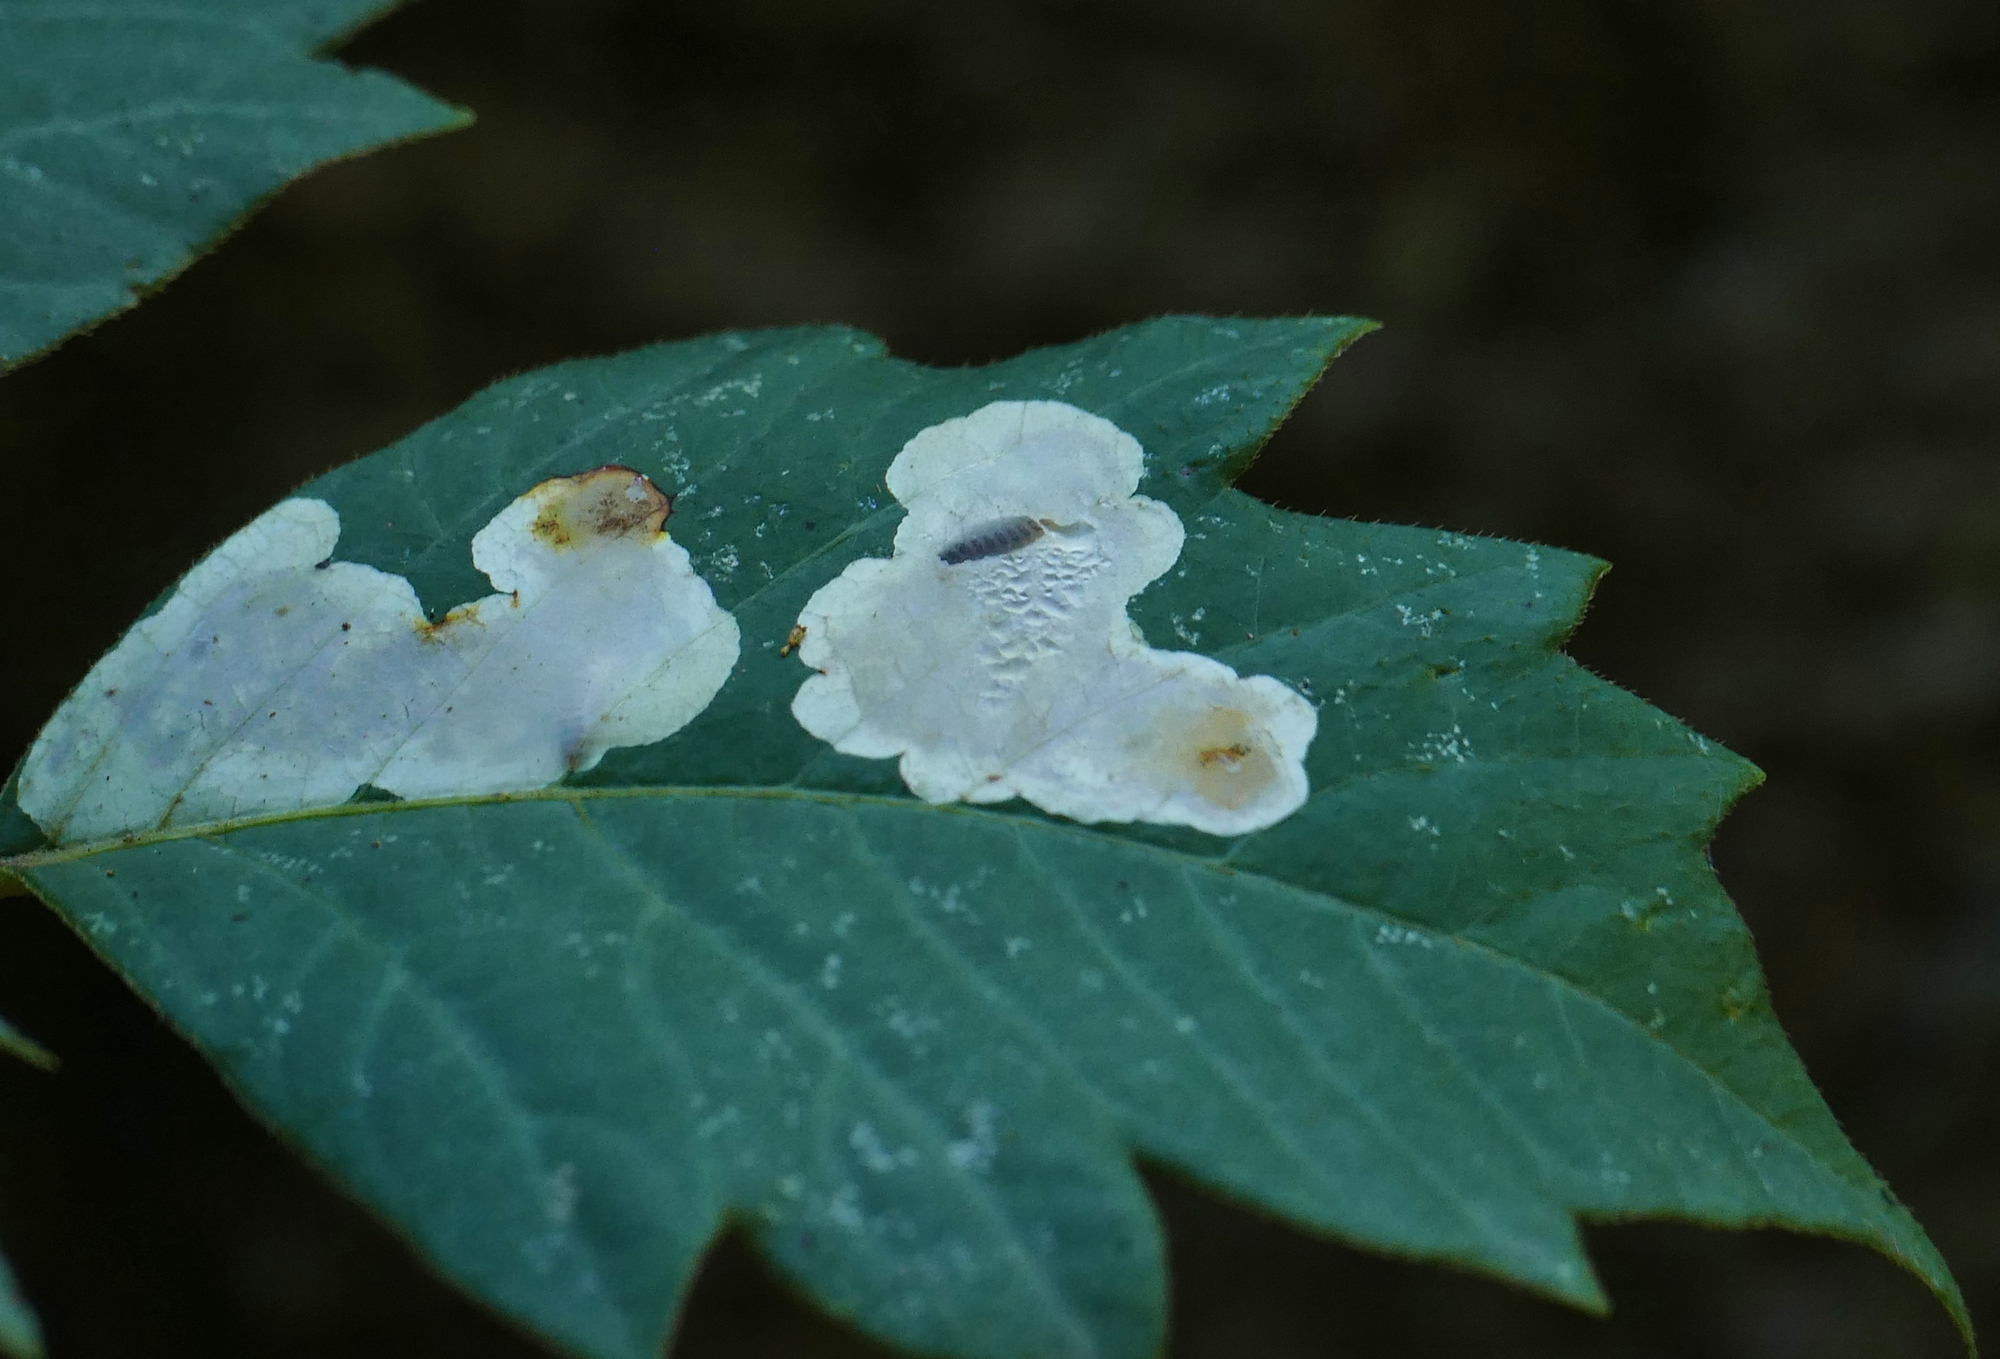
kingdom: Animalia
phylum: Arthropoda
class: Insecta
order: Lepidoptera
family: Gracillariidae
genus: Cameraria
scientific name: Cameraria guttifinitella
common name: Poison ivy leaf-miner moth
